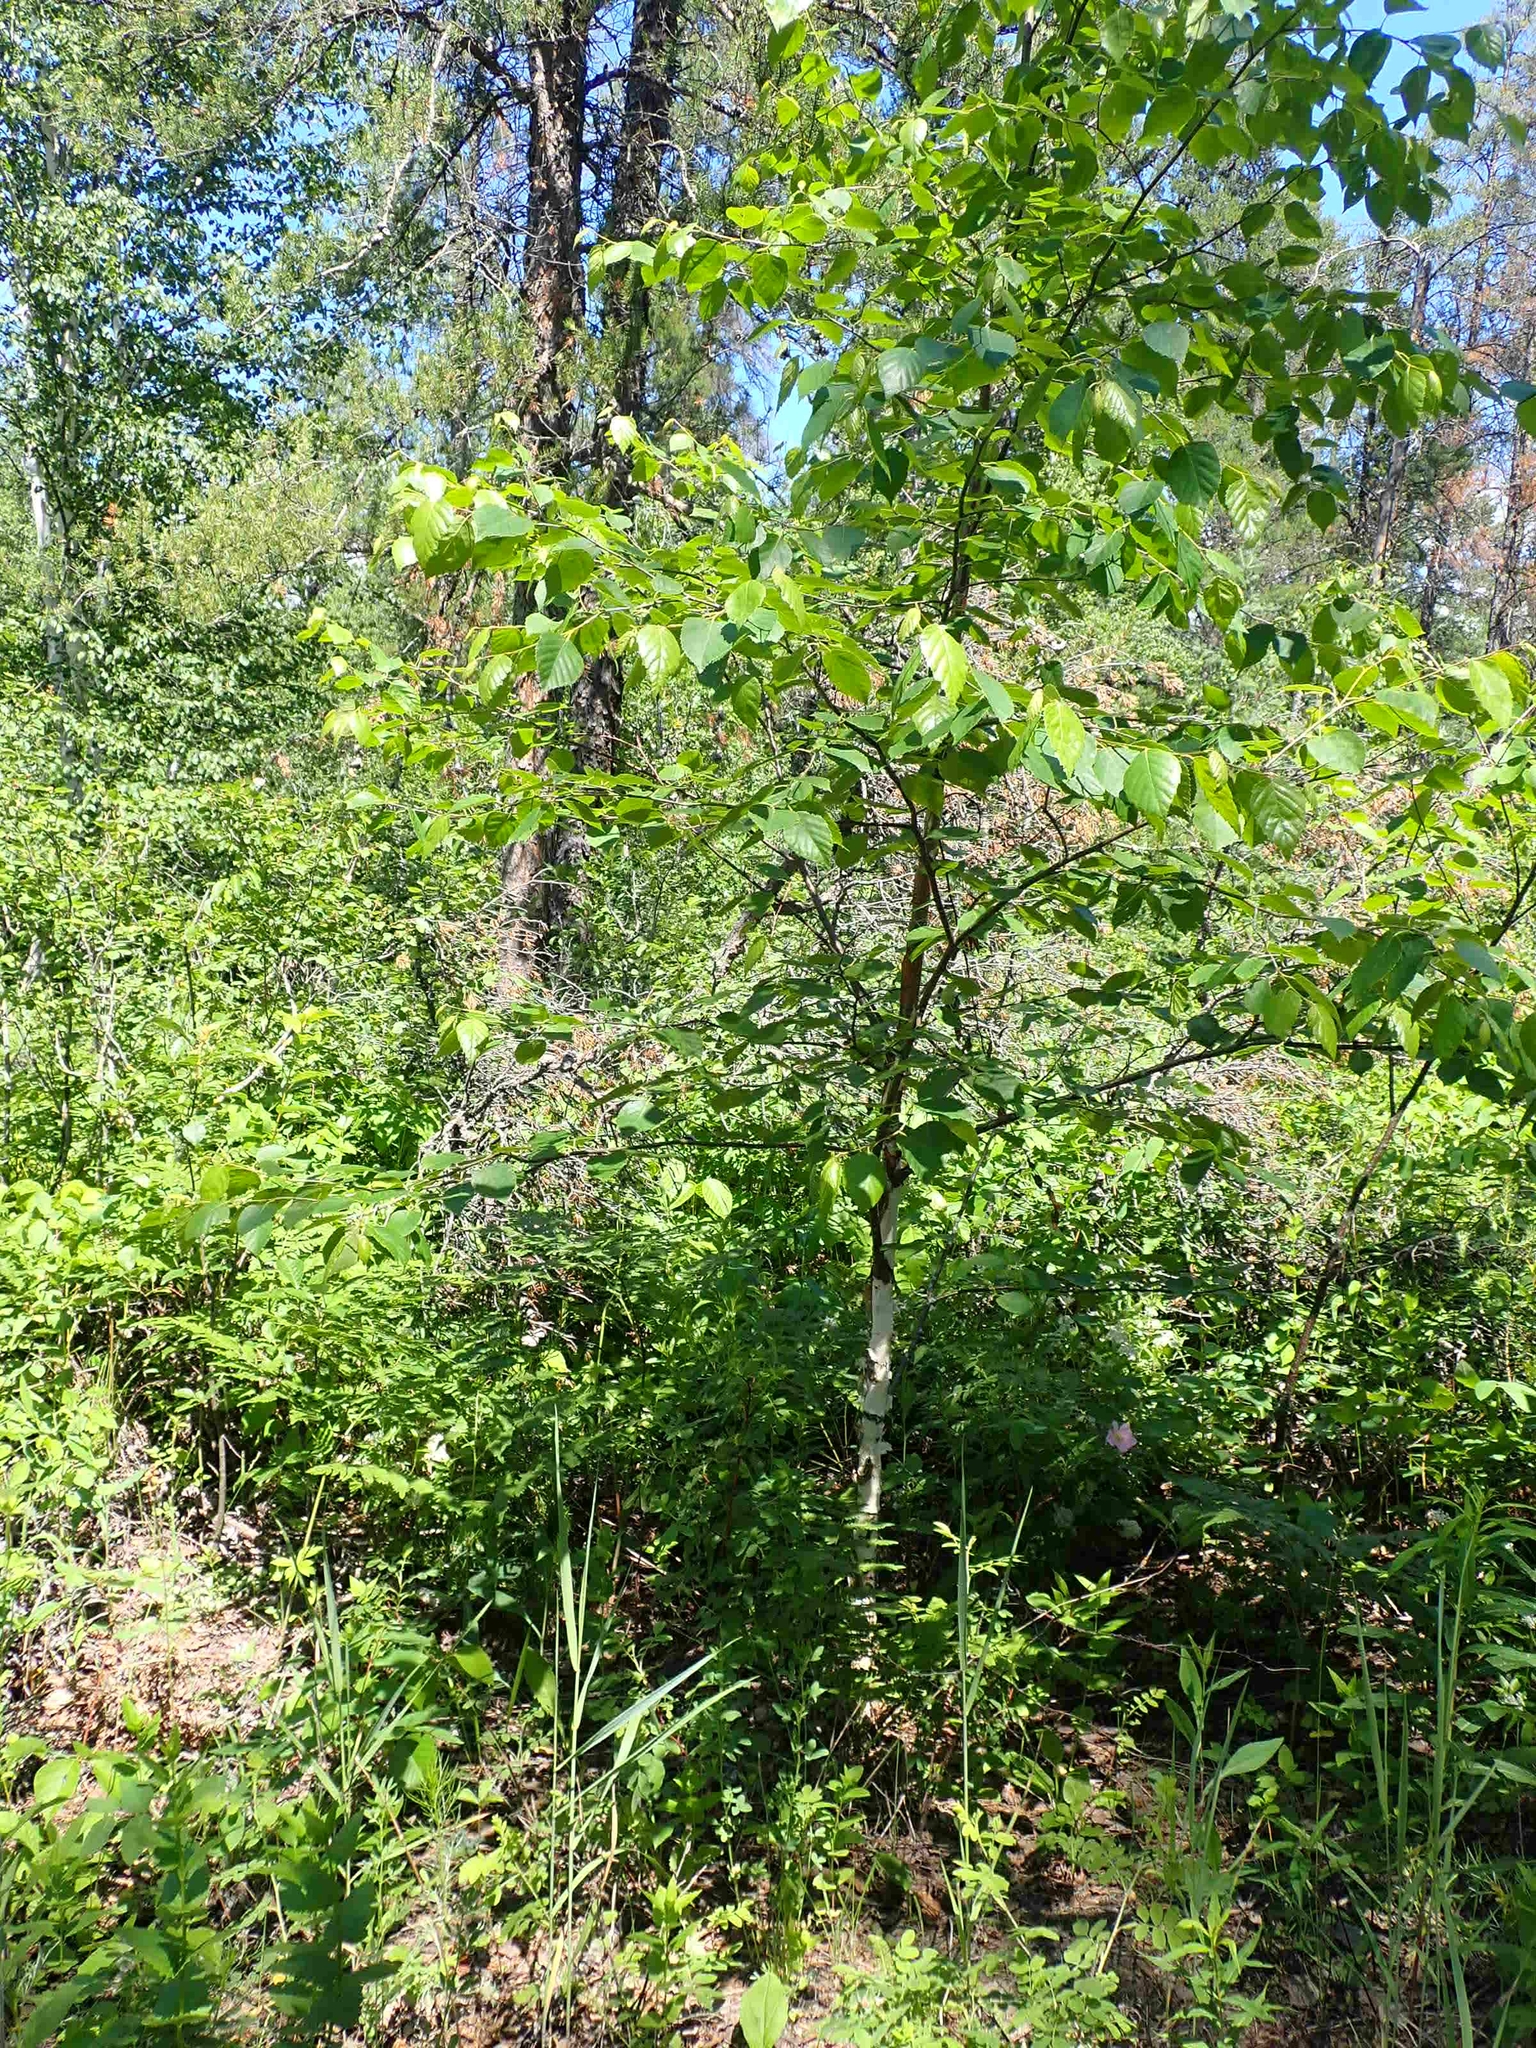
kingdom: Plantae
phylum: Tracheophyta
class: Magnoliopsida
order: Fagales
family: Betulaceae
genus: Betula
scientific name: Betula papyrifera
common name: Paper birch
